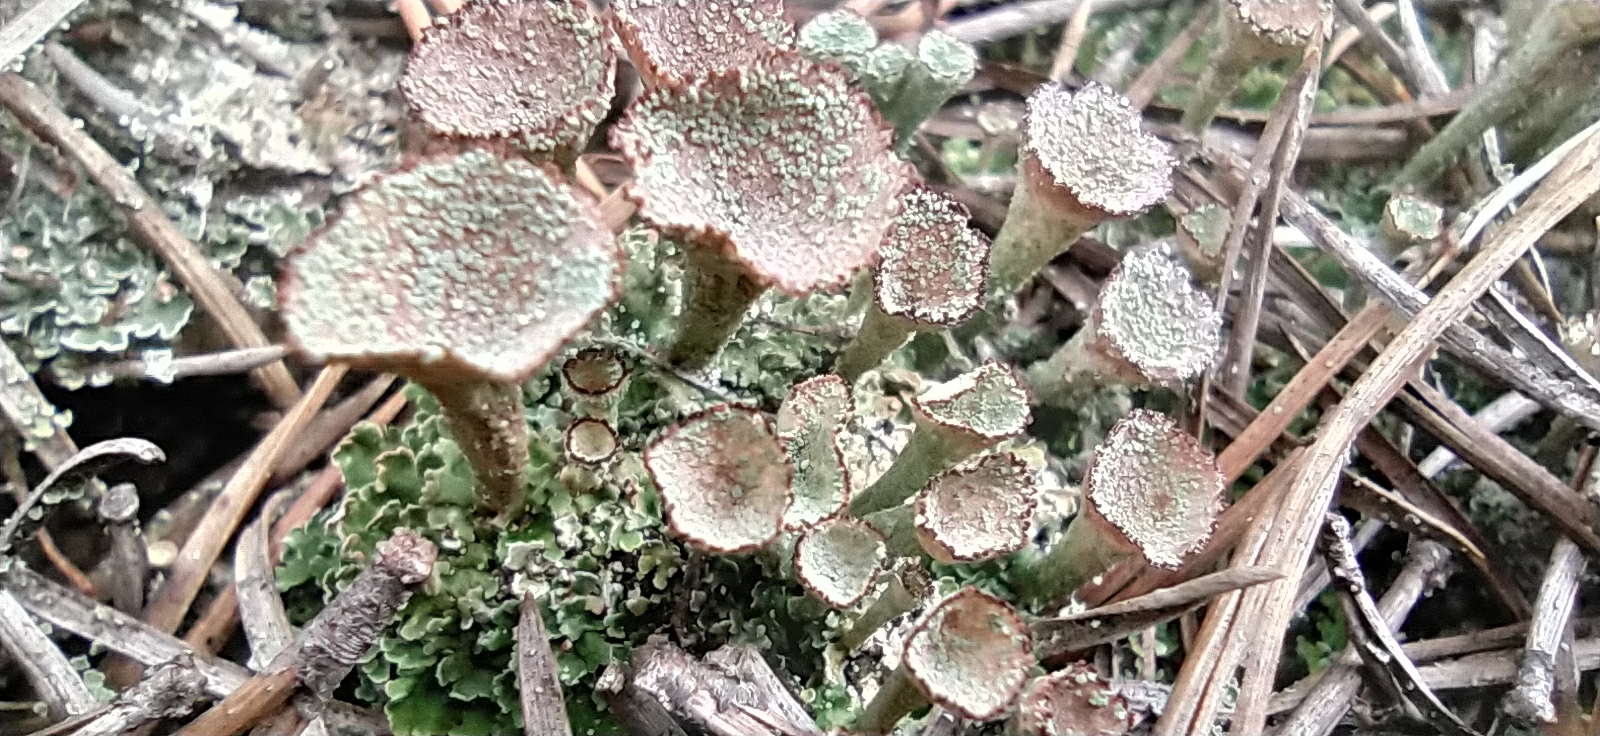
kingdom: Fungi
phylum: Ascomycota
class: Lecanoromycetes
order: Lecanorales
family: Cladoniaceae
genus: Cladonia
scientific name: Cladonia pyxidata
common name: Pebbled pixie cup
